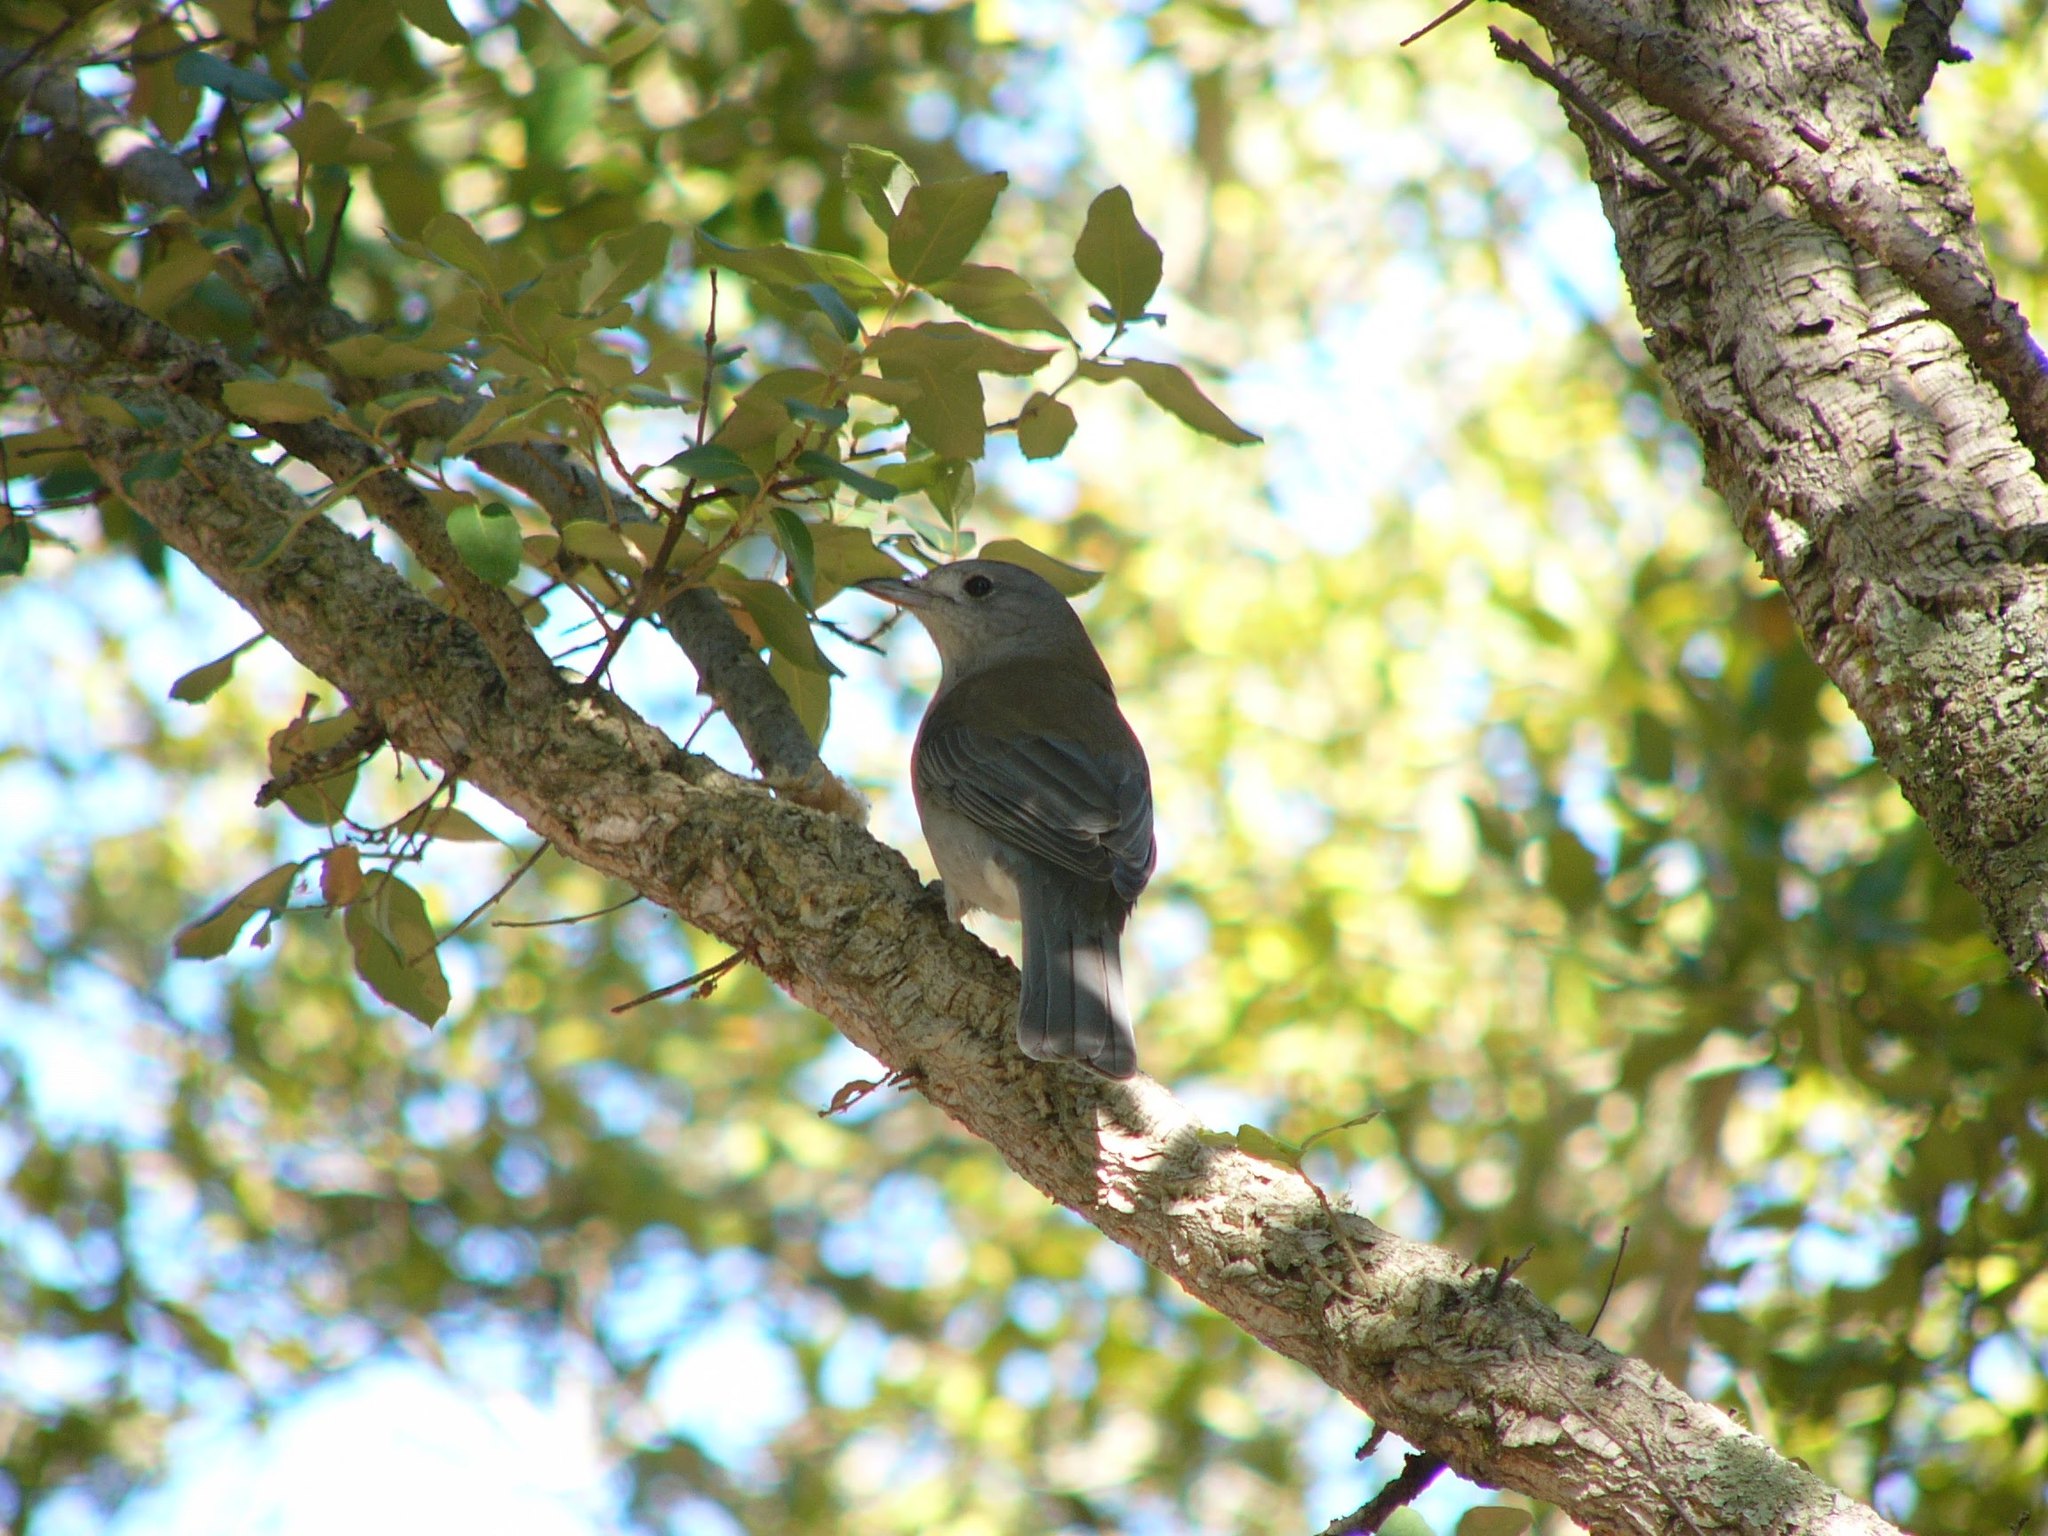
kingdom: Animalia
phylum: Chordata
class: Aves
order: Passeriformes
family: Pachycephalidae
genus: Colluricincla
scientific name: Colluricincla harmonica
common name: Grey shrikethrush
